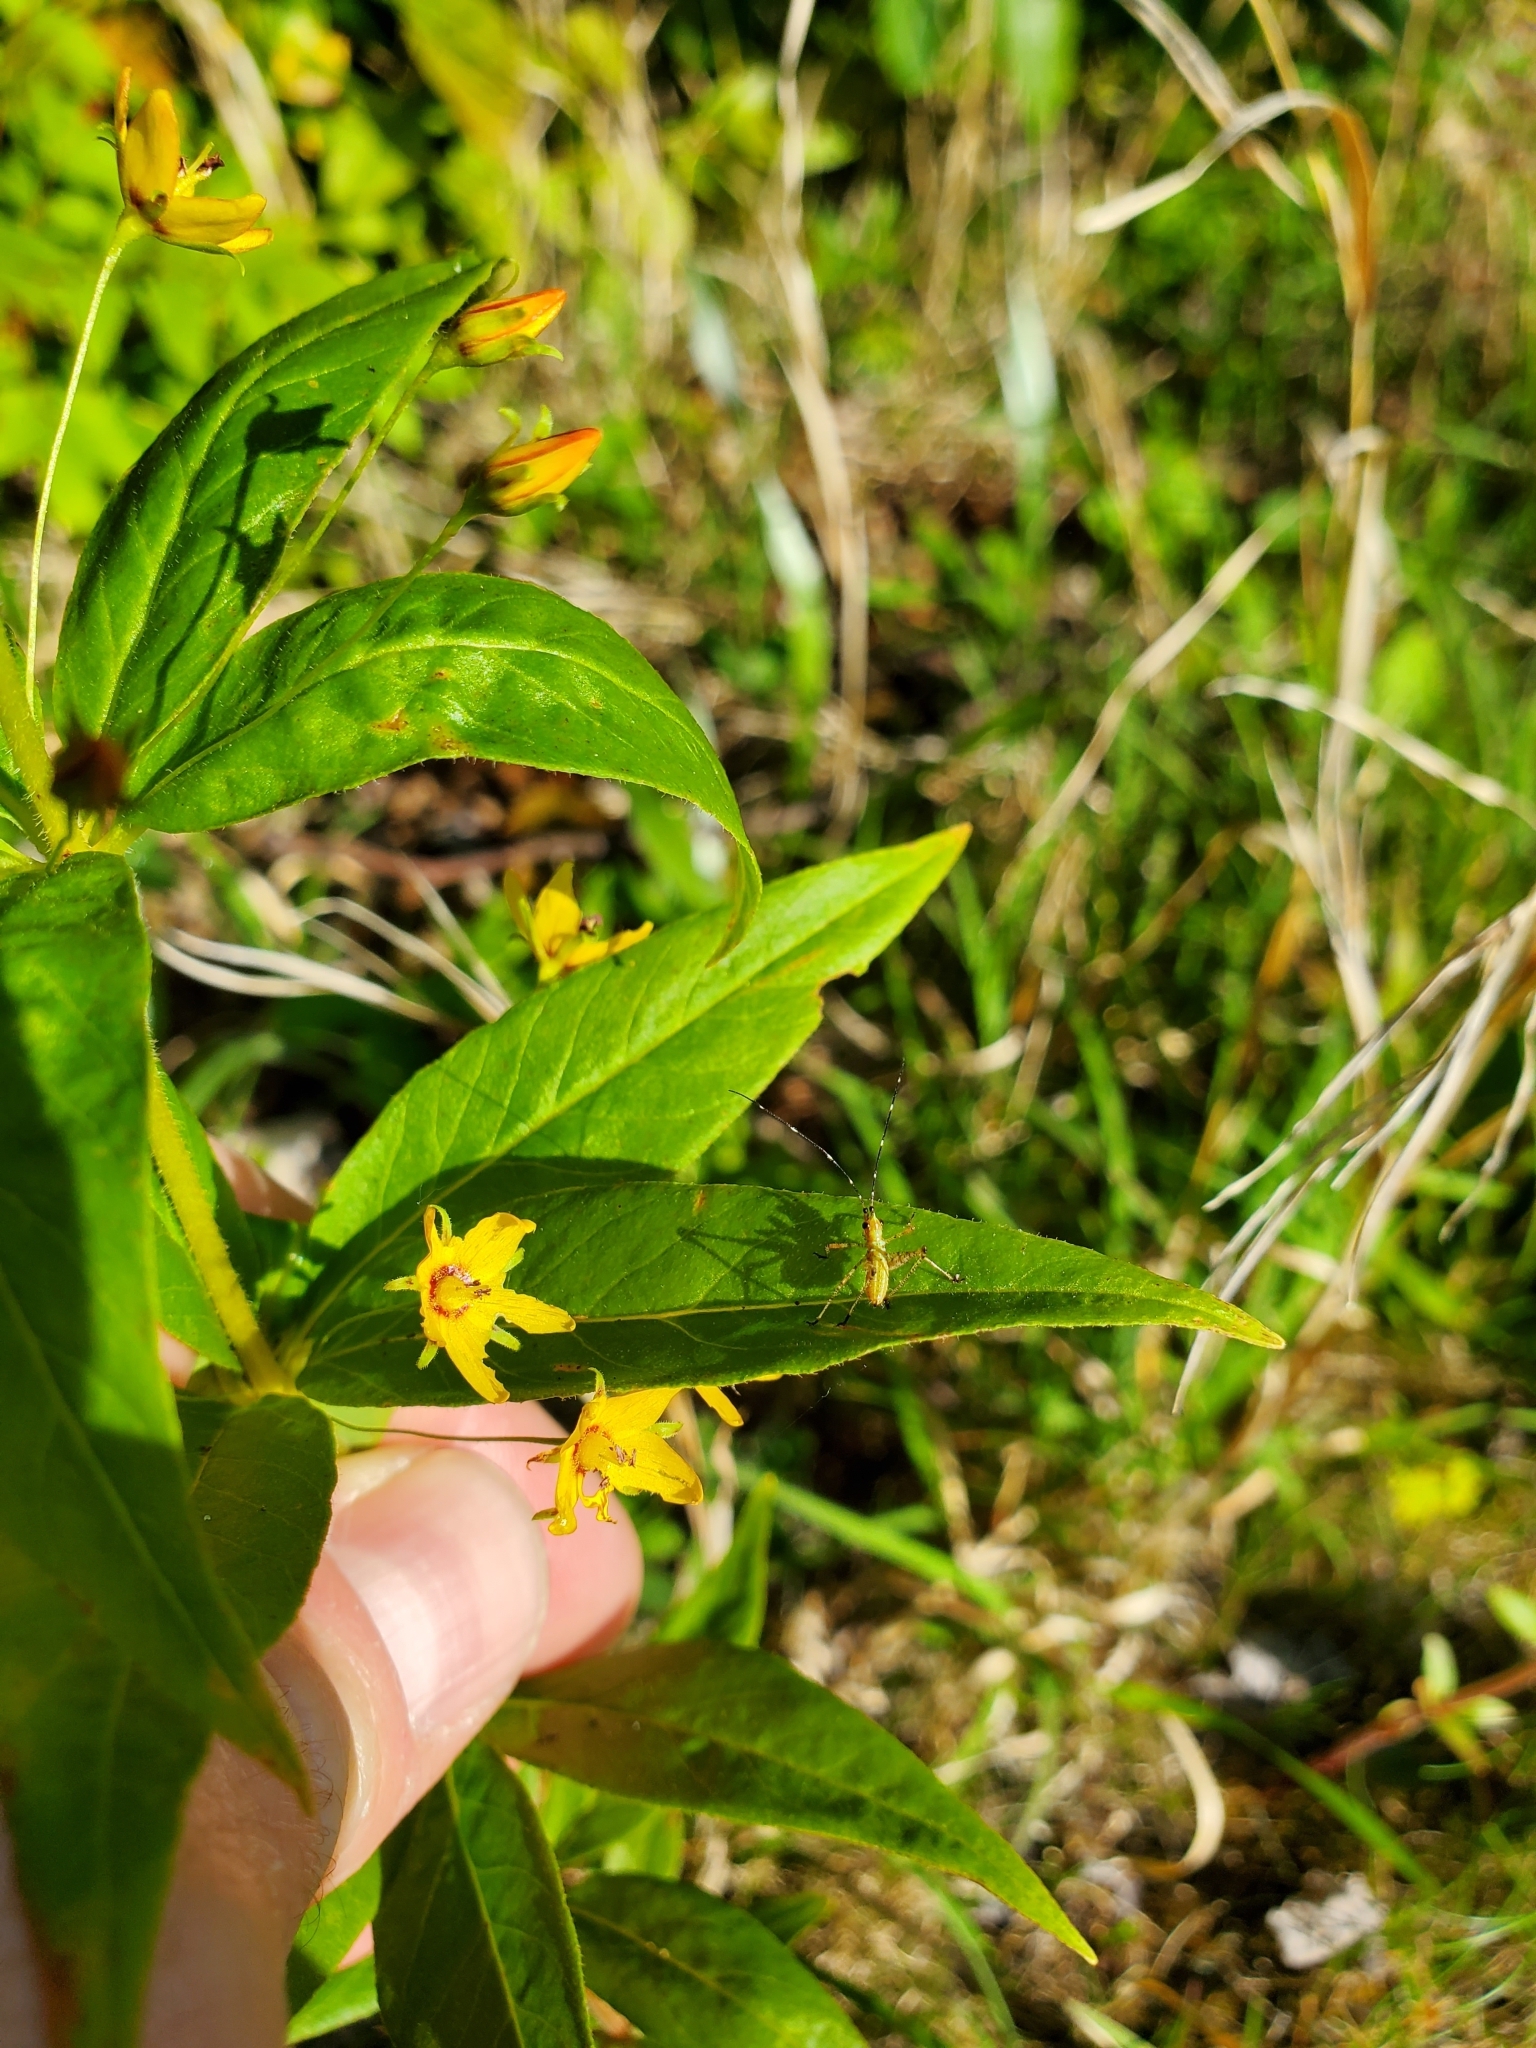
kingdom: Plantae
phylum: Tracheophyta
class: Magnoliopsida
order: Ericales
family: Primulaceae
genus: Lysimachia
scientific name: Lysimachia quadrifolia
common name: Whorled loosestrife
